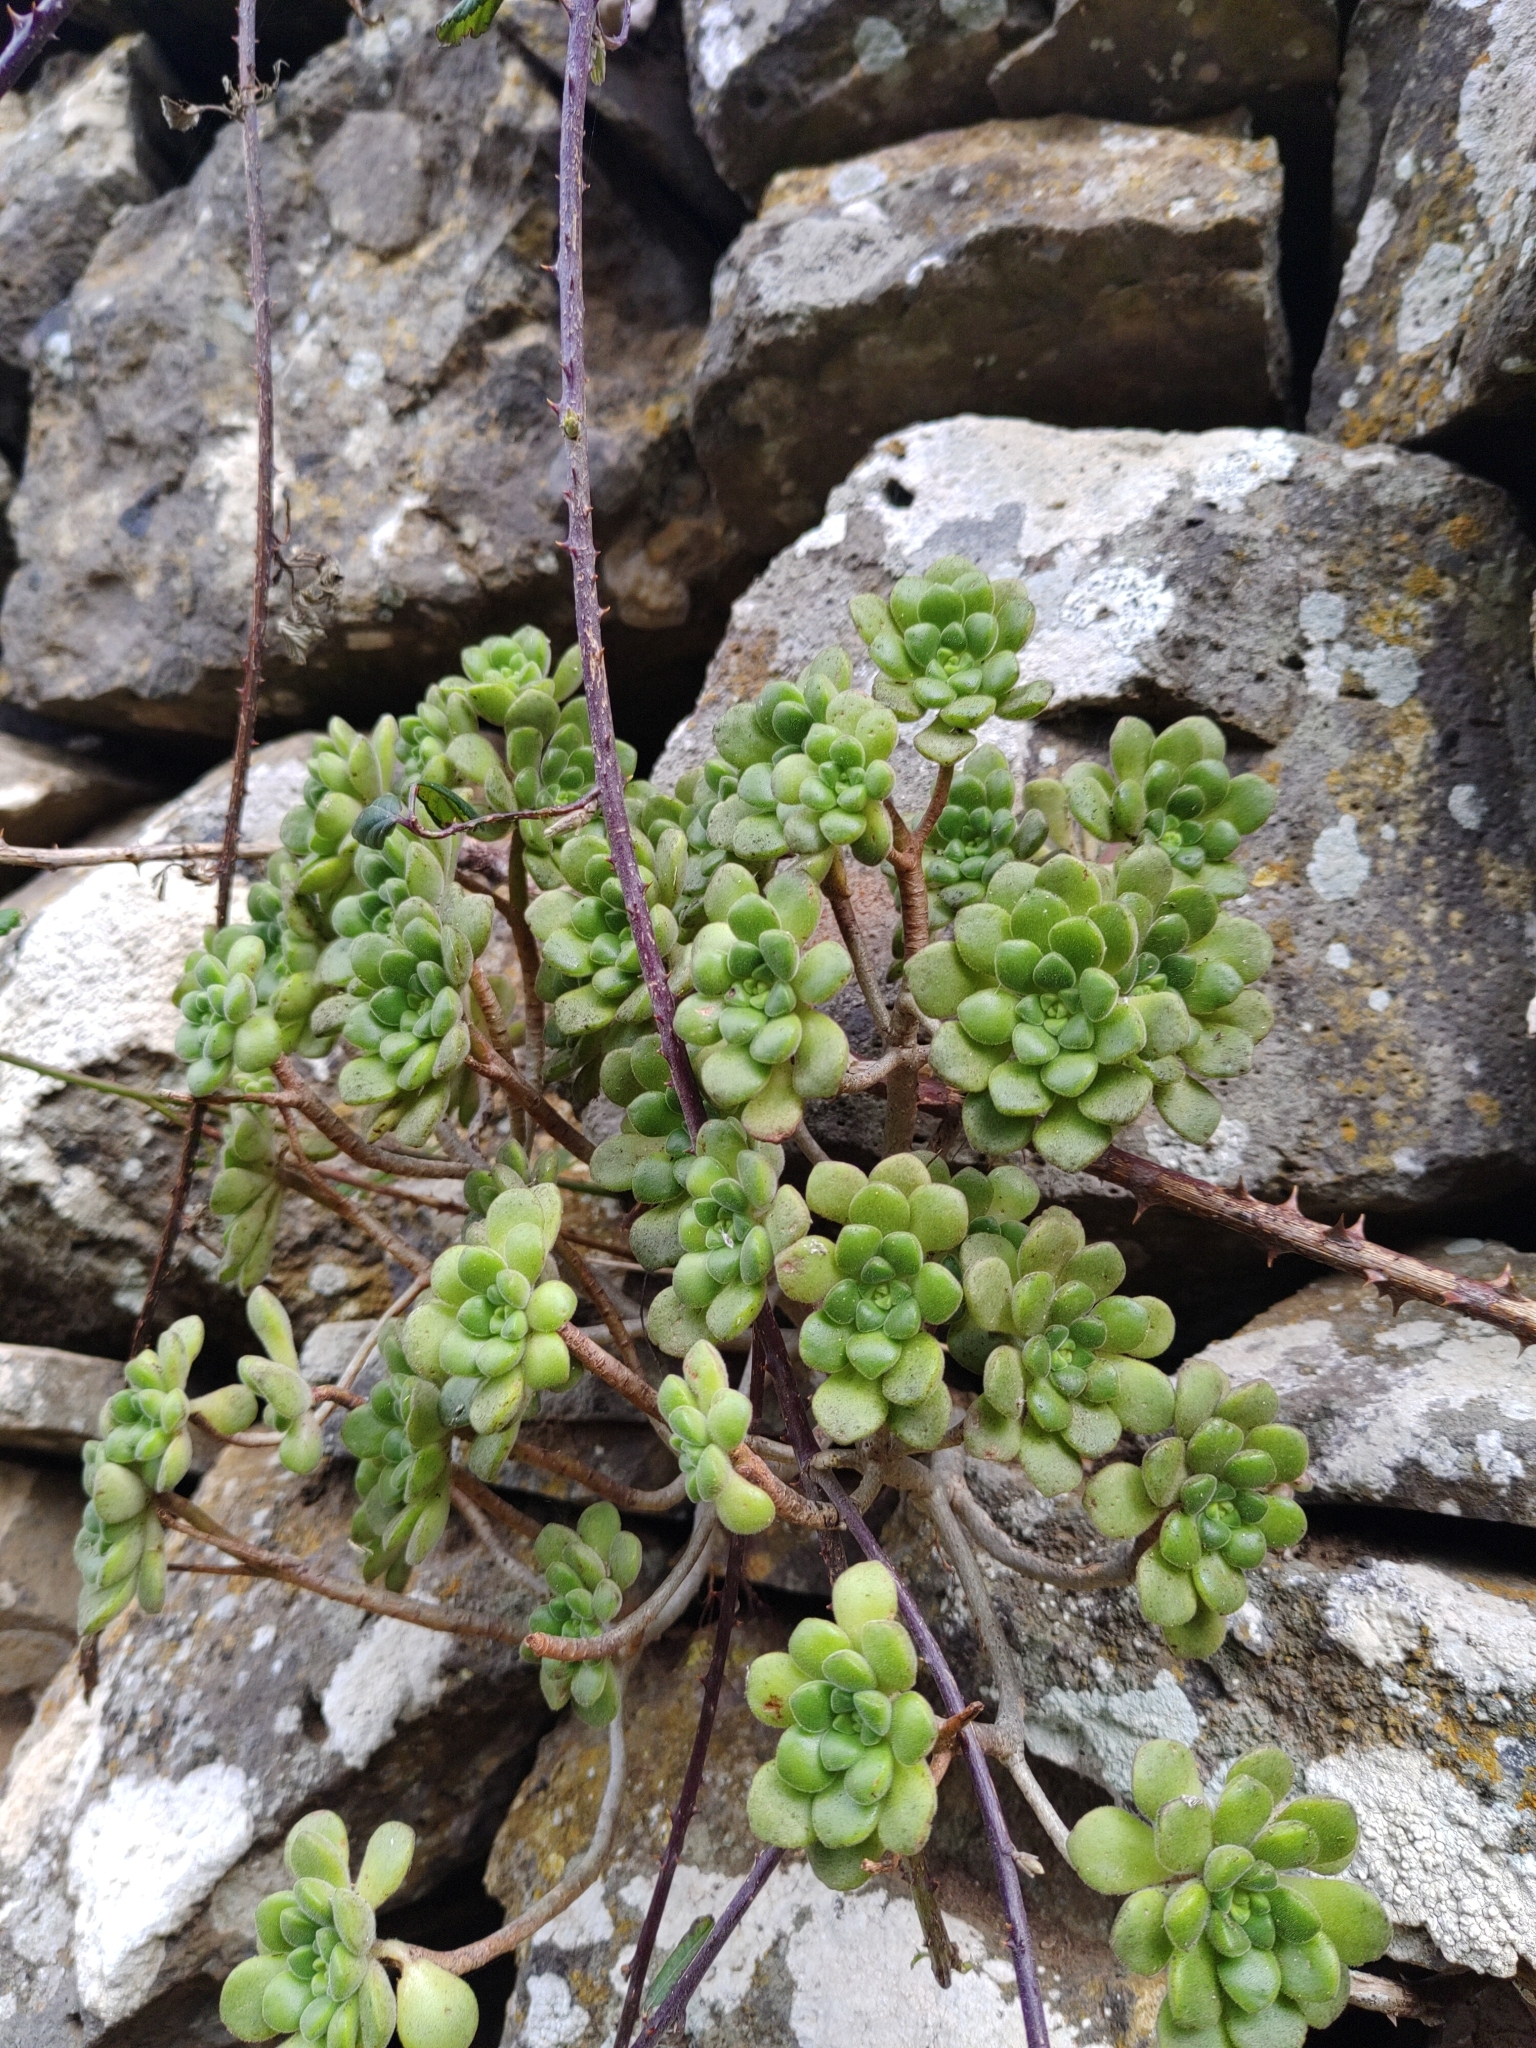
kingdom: Plantae
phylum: Tracheophyta
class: Magnoliopsida
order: Saxifragales
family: Crassulaceae
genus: Aeonium
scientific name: Aeonium lindleyi
